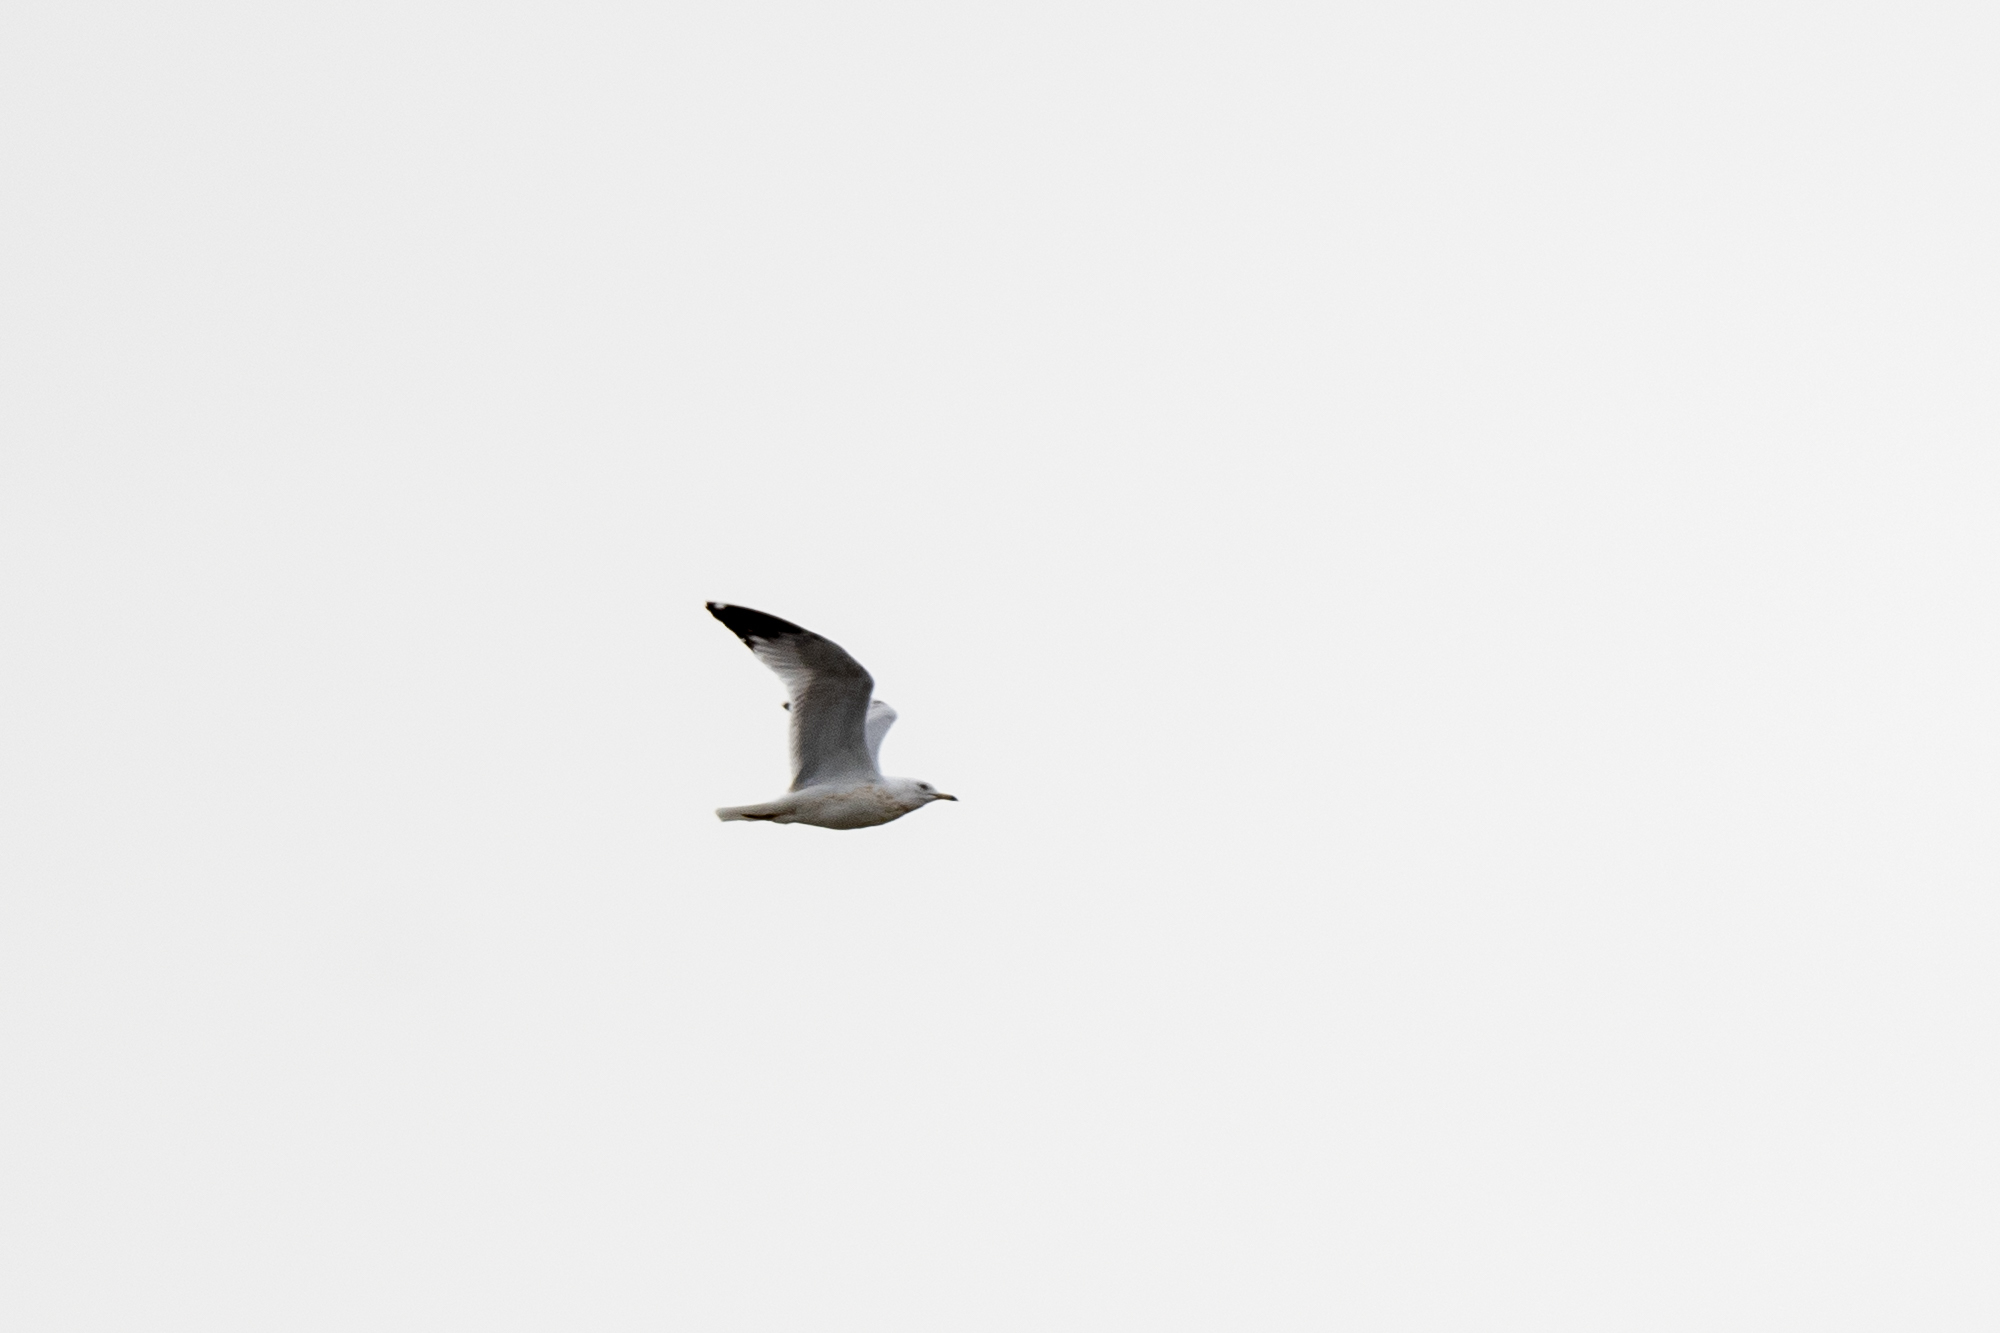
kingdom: Animalia
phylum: Chordata
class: Aves
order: Charadriiformes
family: Laridae
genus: Larus
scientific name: Larus delawarensis
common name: Ring-billed gull
